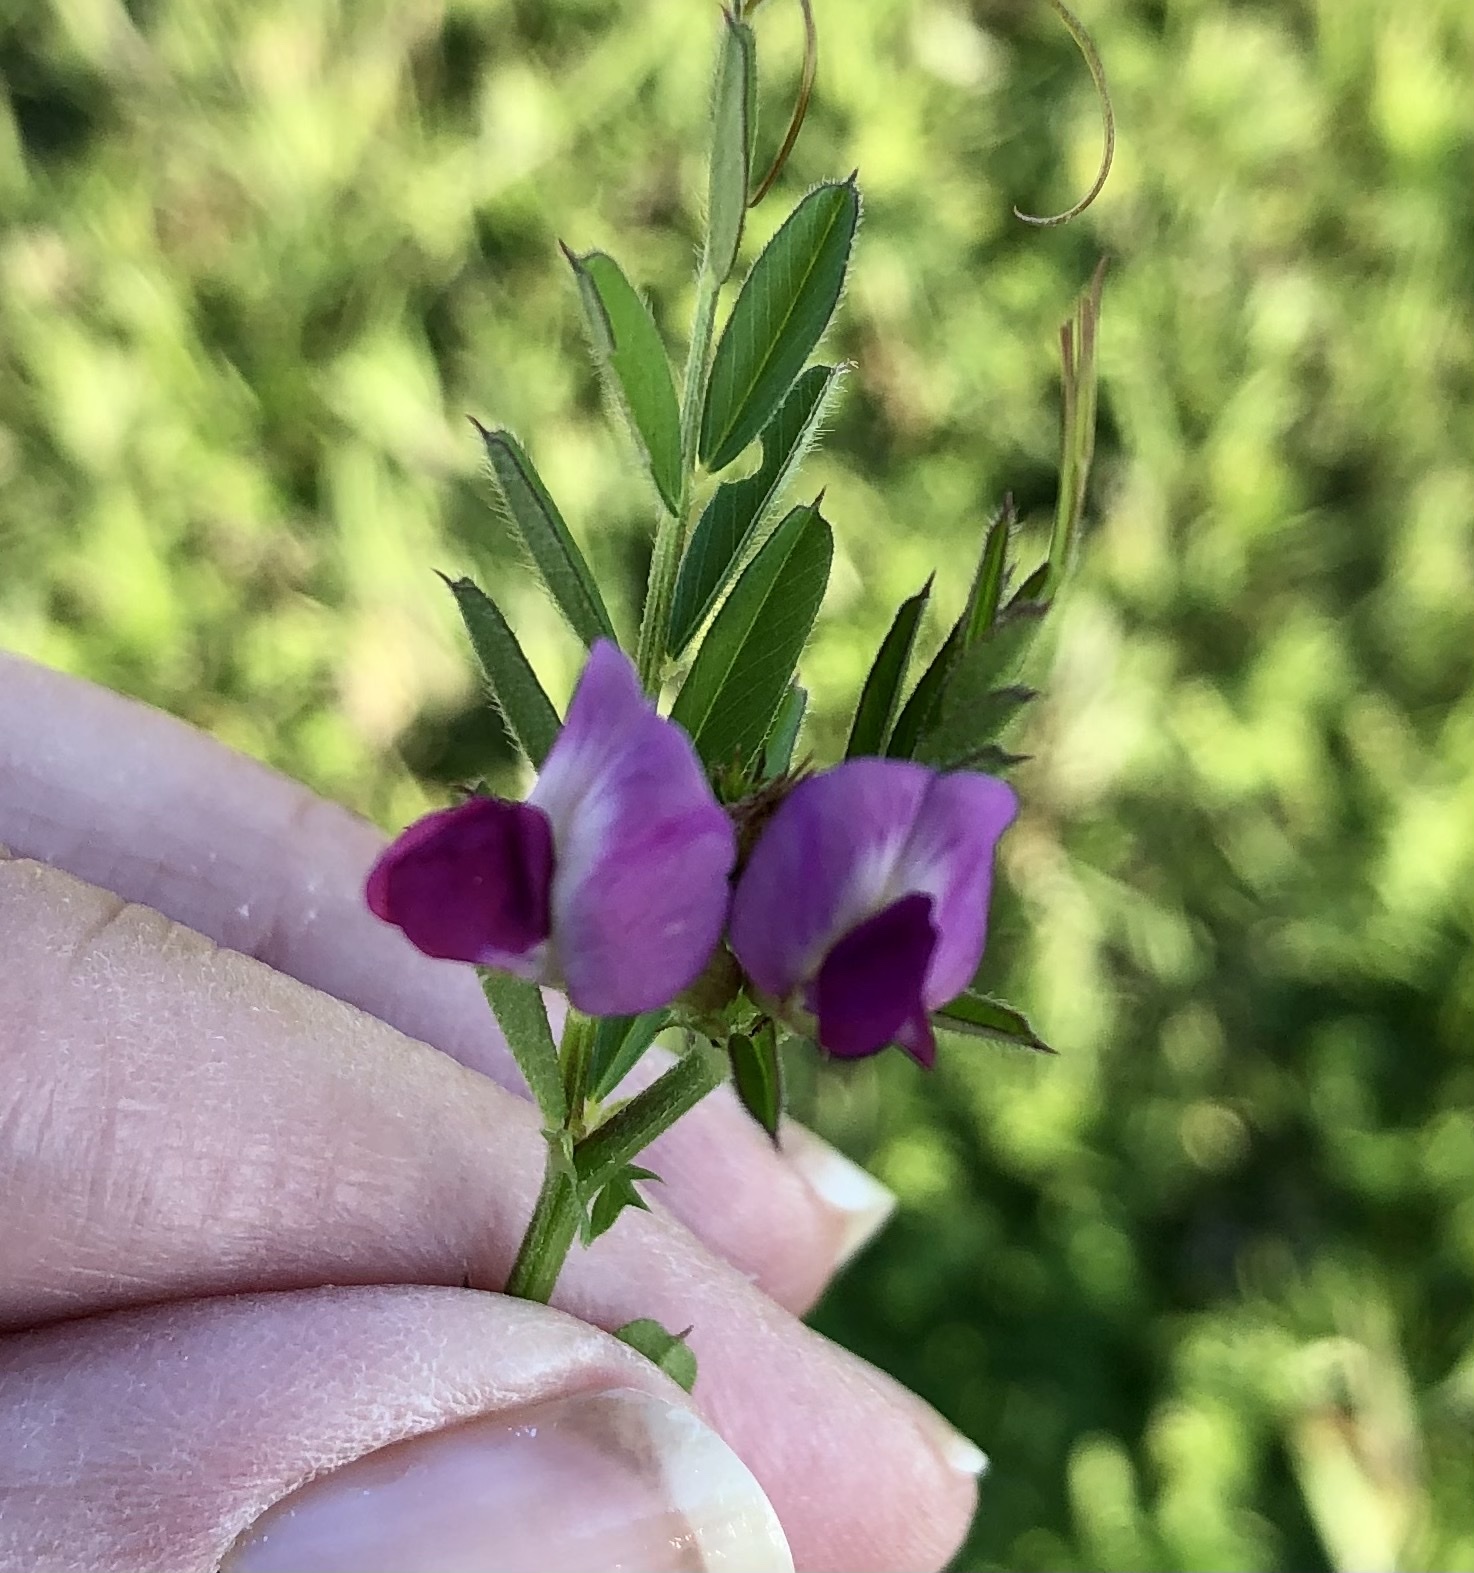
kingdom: Plantae
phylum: Tracheophyta
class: Magnoliopsida
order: Fabales
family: Fabaceae
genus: Vicia
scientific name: Vicia sativa
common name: Garden vetch
